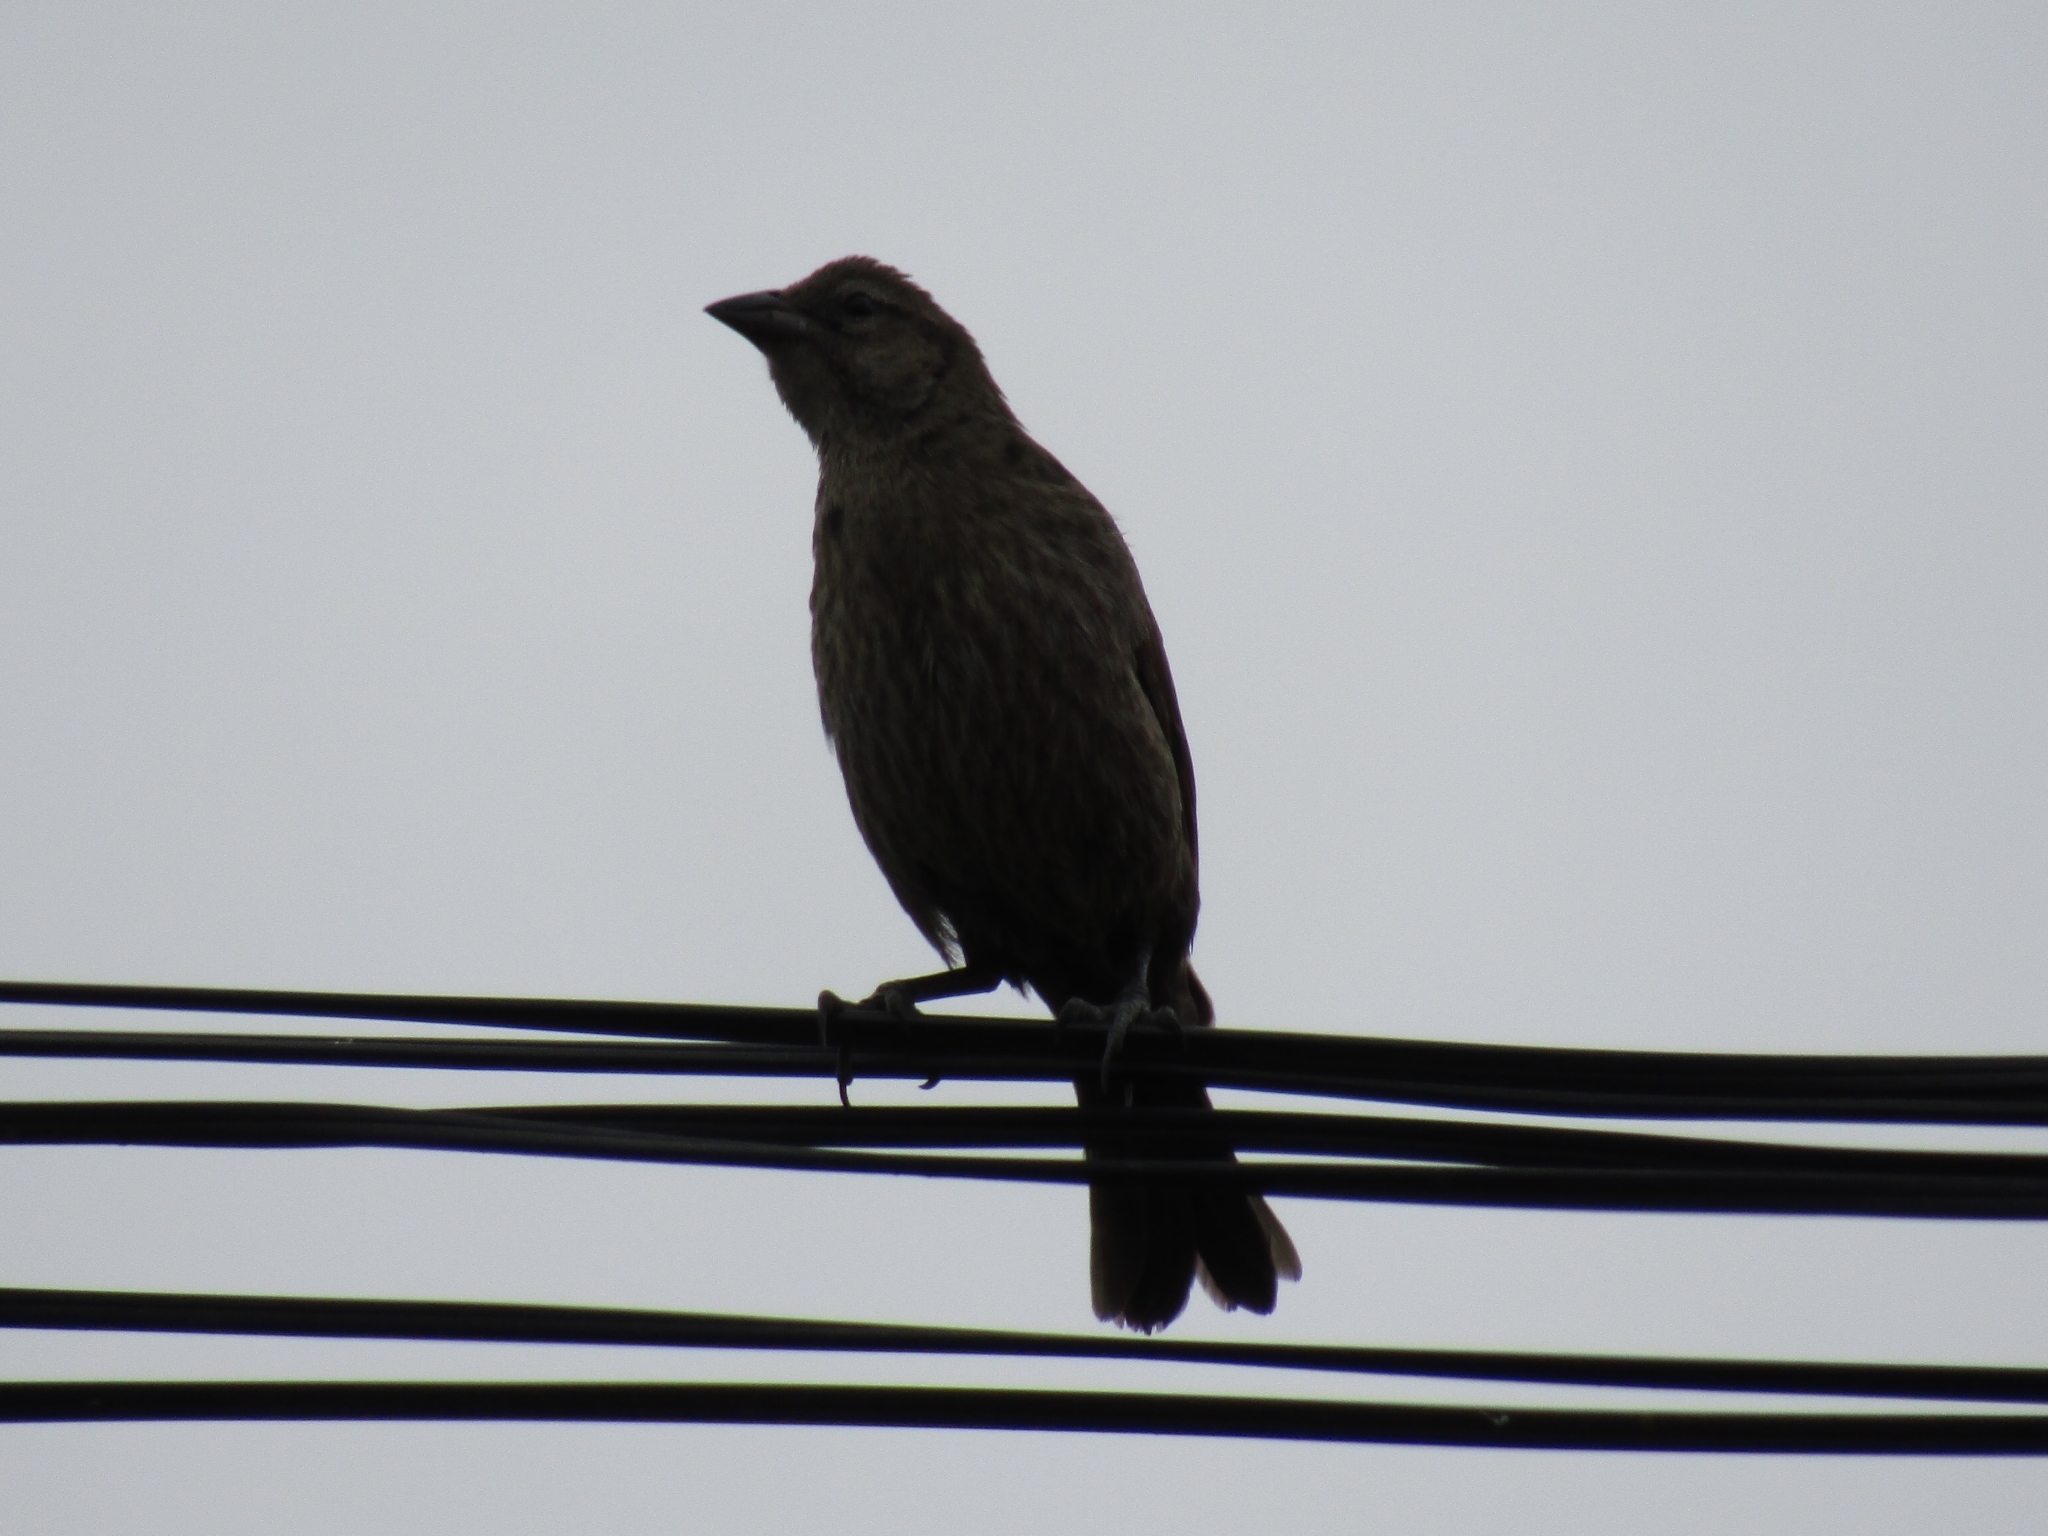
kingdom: Animalia
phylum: Chordata
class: Aves
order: Passeriformes
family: Icteridae
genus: Molothrus
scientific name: Molothrus bonariensis
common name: Shiny cowbird
